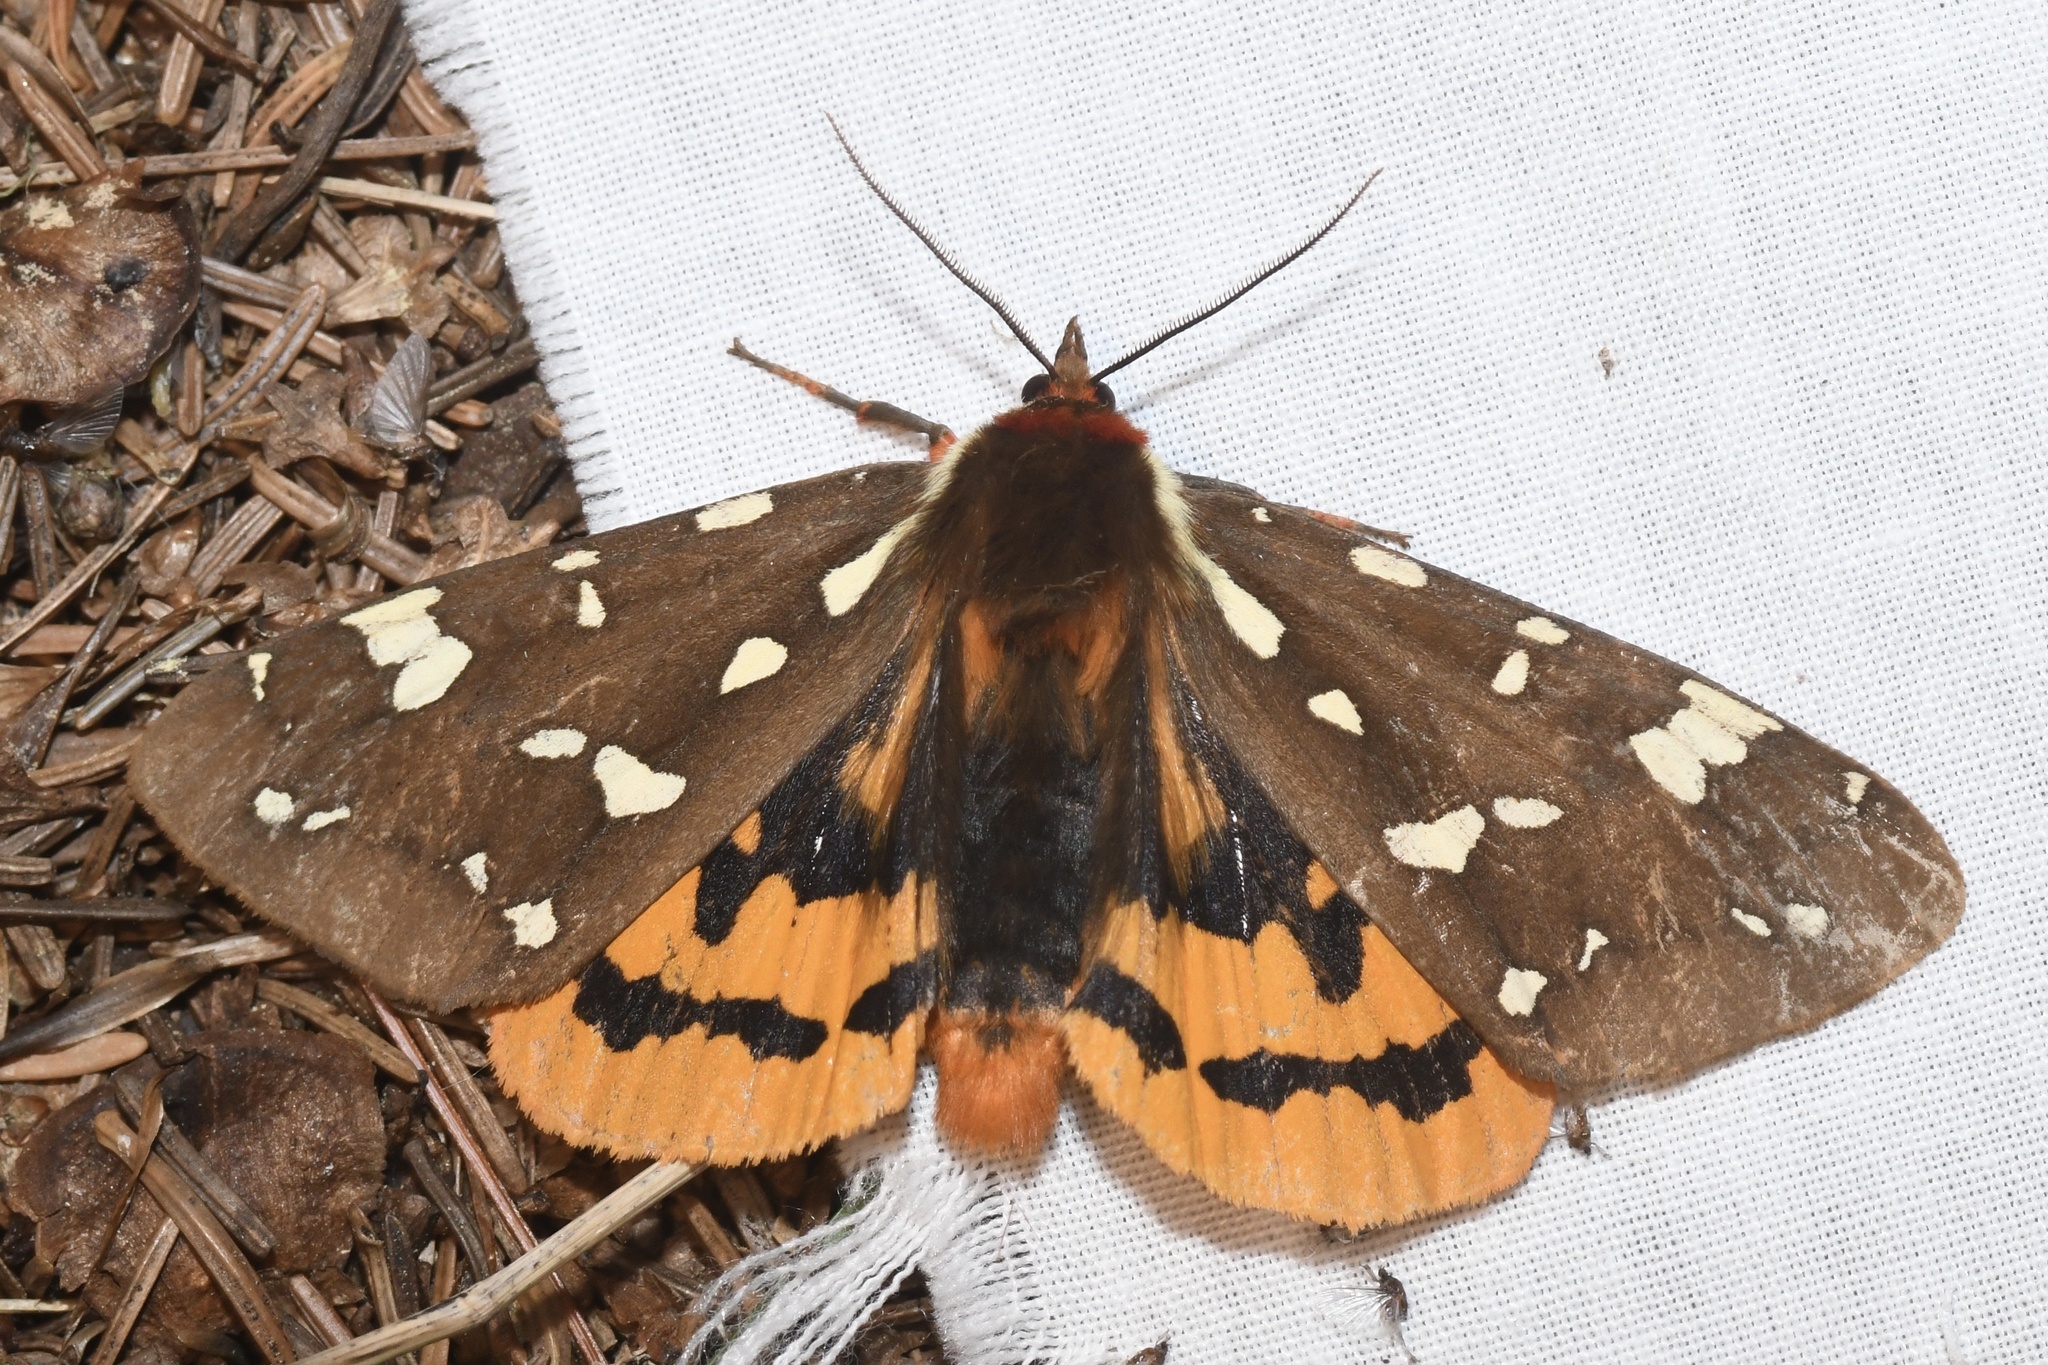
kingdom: Animalia
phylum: Arthropoda
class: Insecta
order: Lepidoptera
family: Erebidae
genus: Arctia
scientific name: Arctia parthenos
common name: St. lawrence tiger moth
